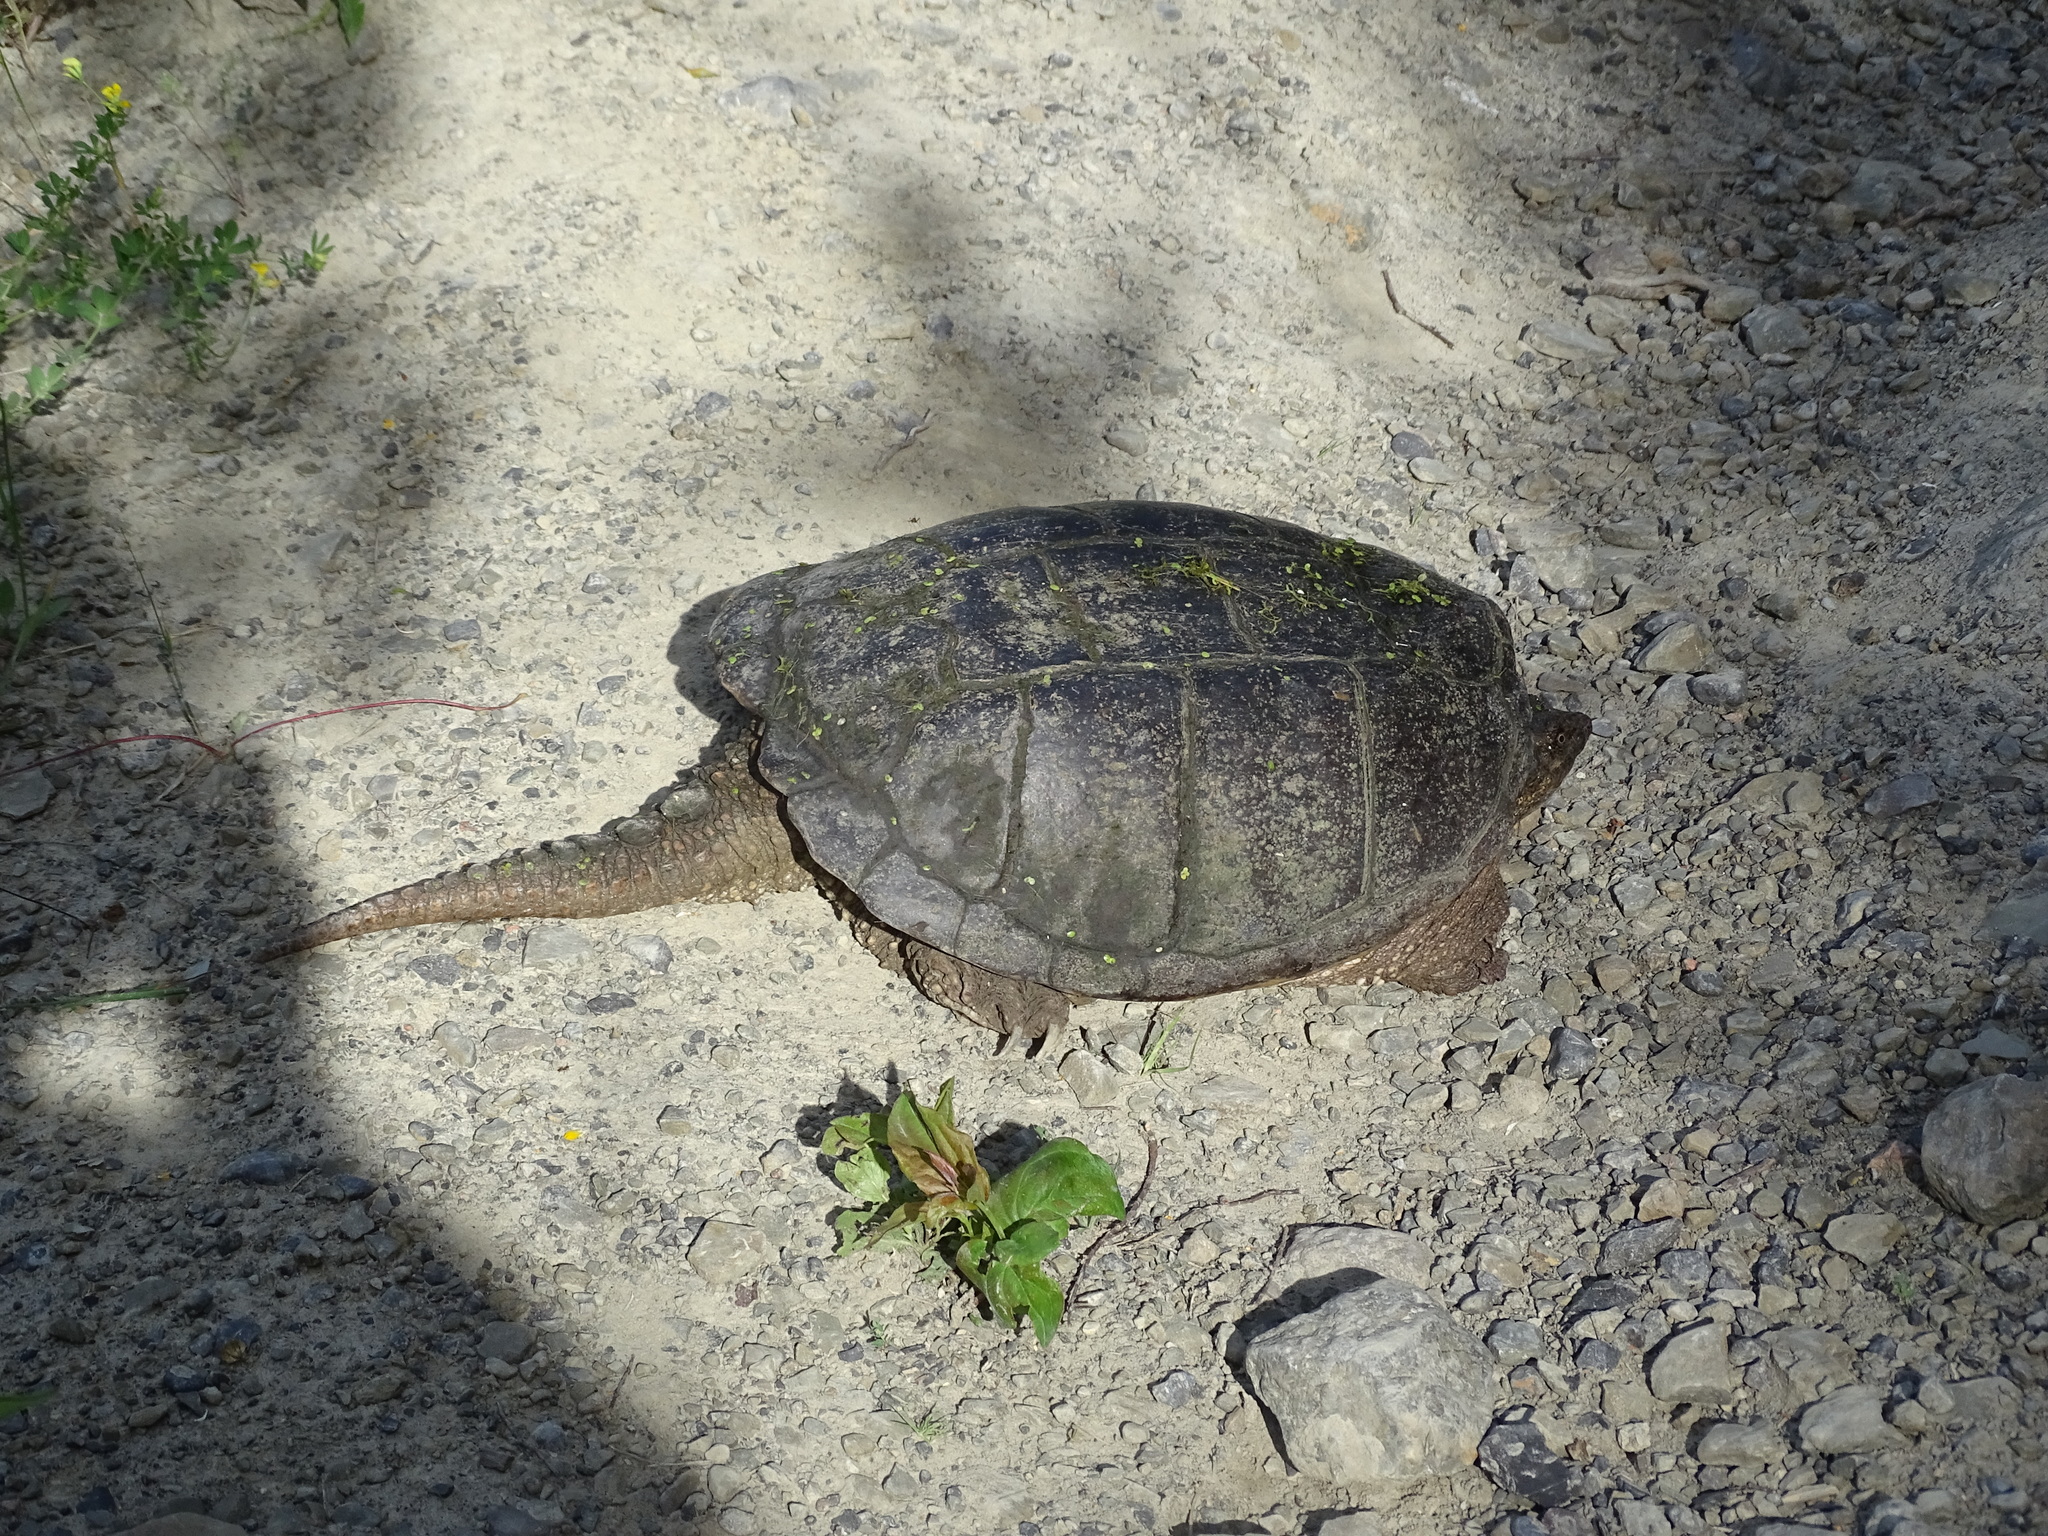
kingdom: Animalia
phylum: Chordata
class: Testudines
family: Chelydridae
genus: Chelydra
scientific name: Chelydra serpentina
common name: Common snapping turtle
